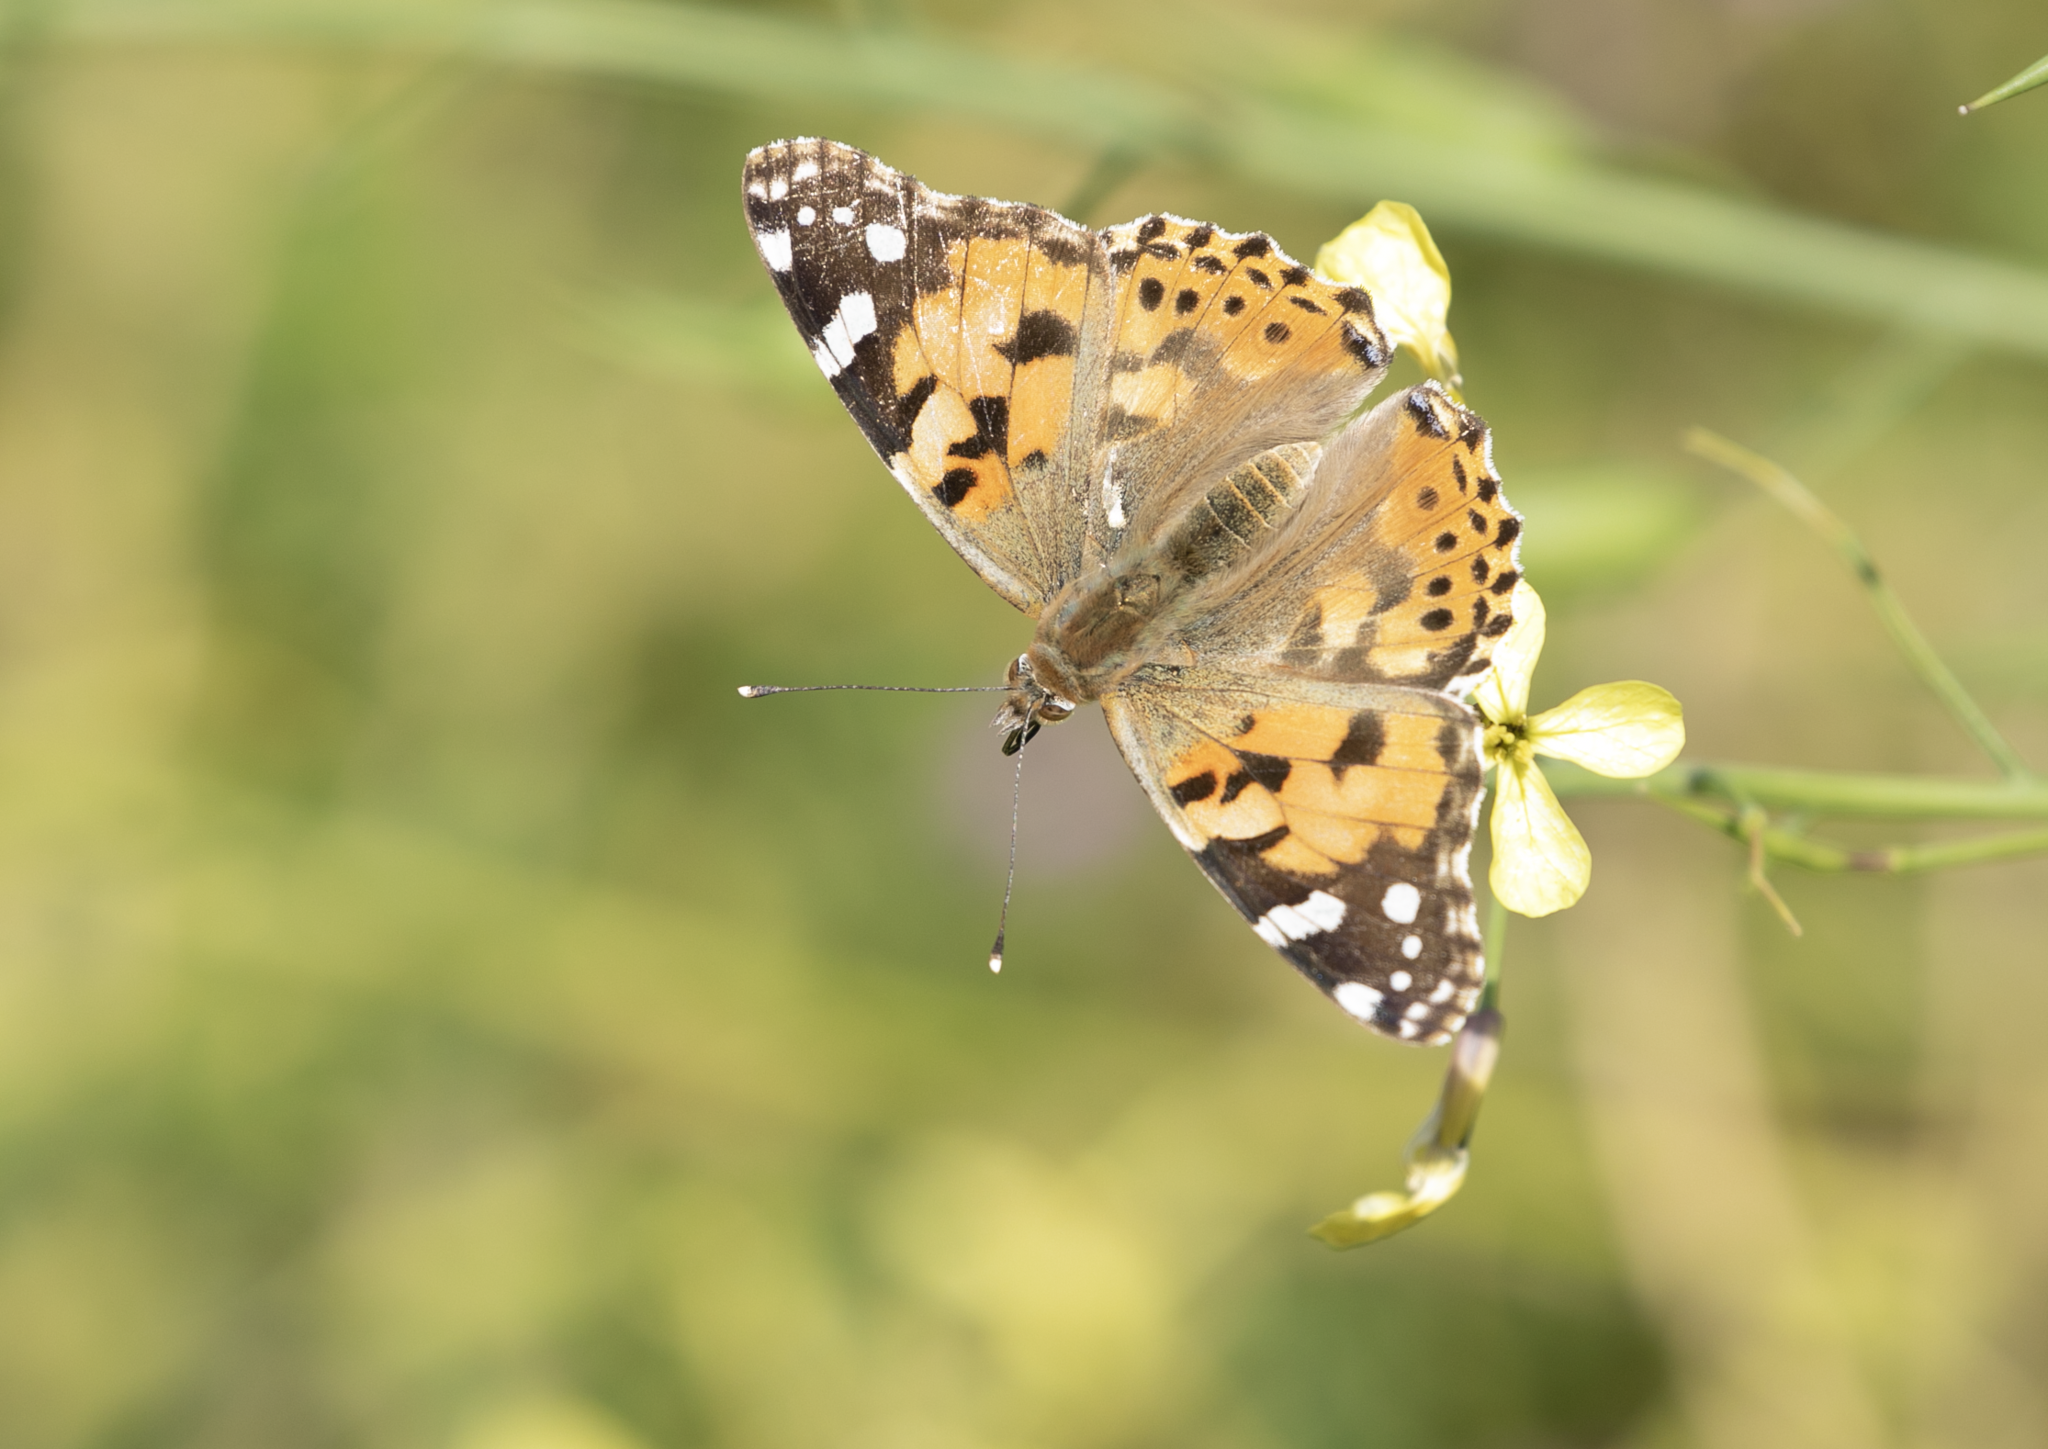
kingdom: Animalia
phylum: Arthropoda
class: Insecta
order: Lepidoptera
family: Nymphalidae
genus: Vanessa
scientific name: Vanessa cardui
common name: Painted lady
